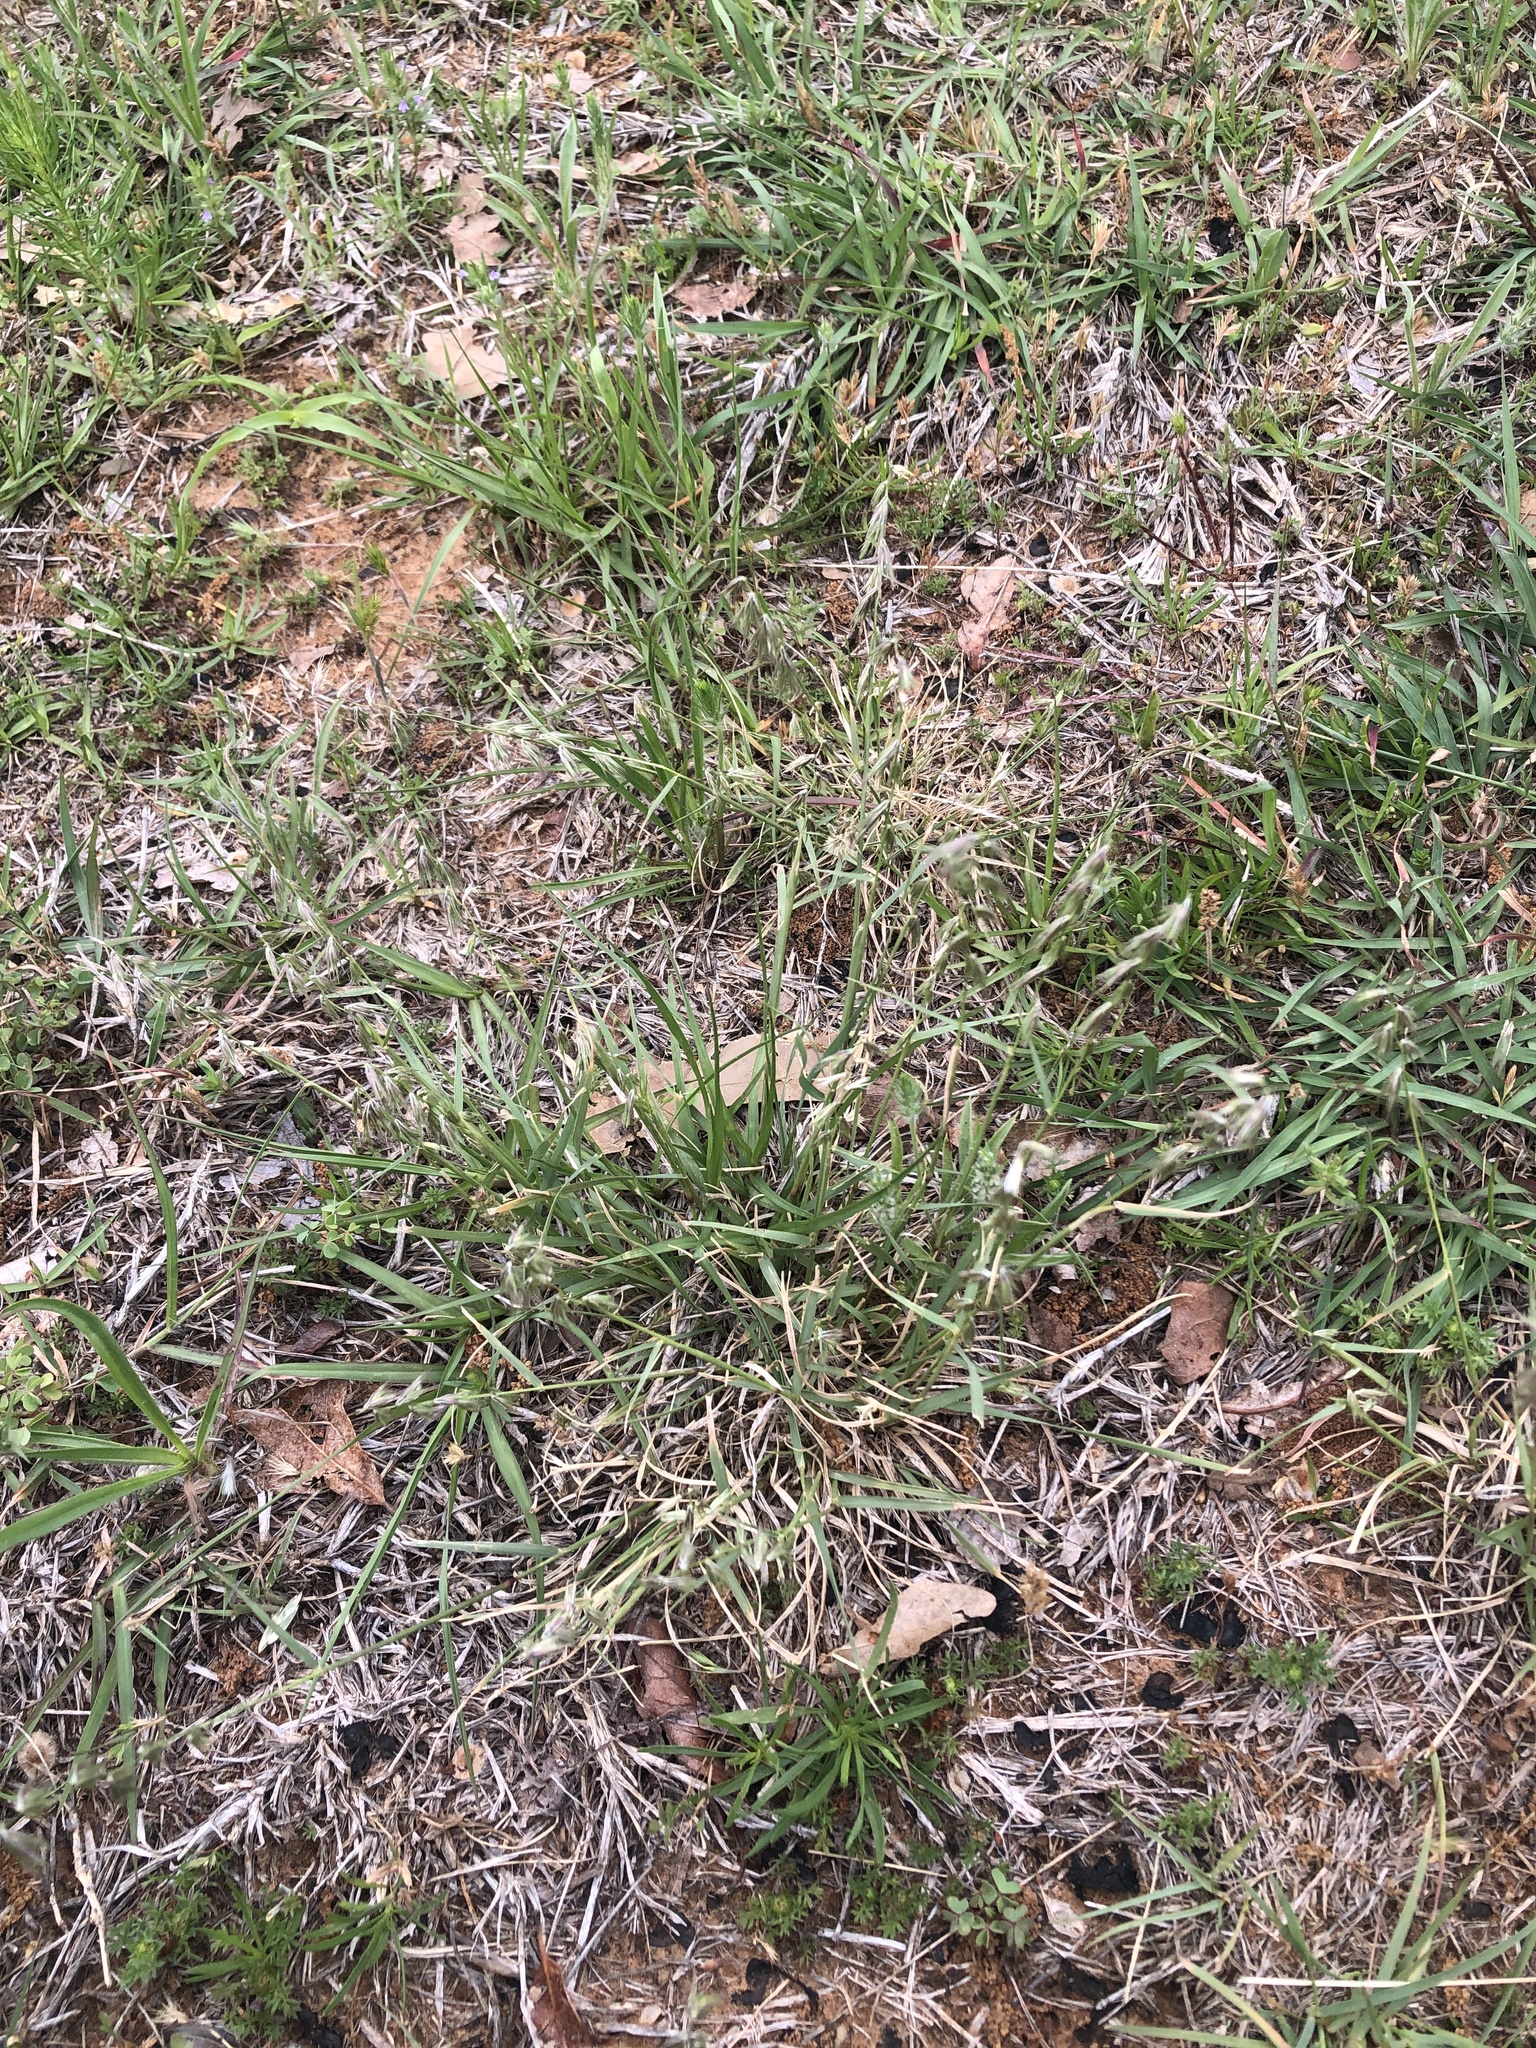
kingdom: Plantae
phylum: Tracheophyta
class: Liliopsida
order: Poales
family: Poaceae
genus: Bouteloua
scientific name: Bouteloua rigidiseta
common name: Texas grama
